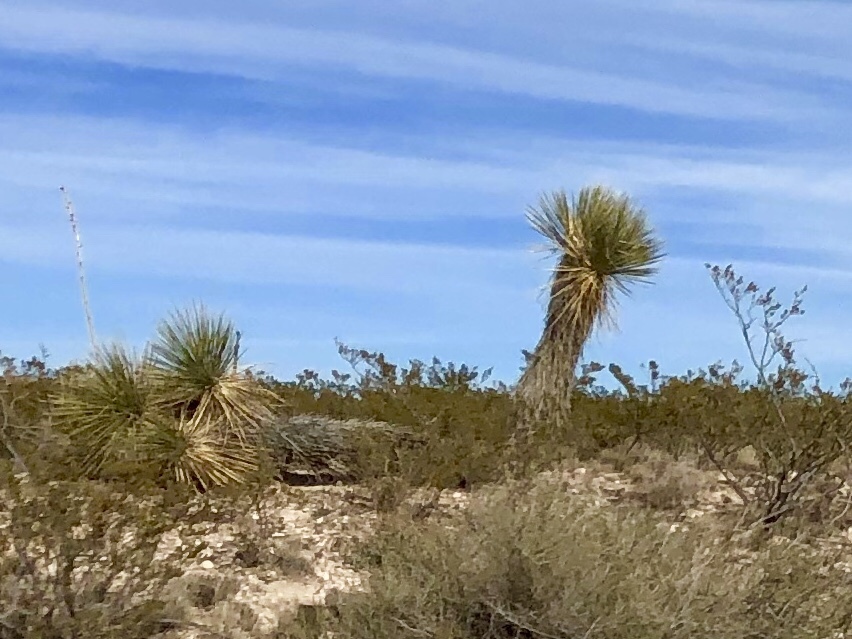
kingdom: Plantae
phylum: Tracheophyta
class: Liliopsida
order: Asparagales
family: Asparagaceae
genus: Yucca
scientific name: Yucca elata
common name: Palmella
